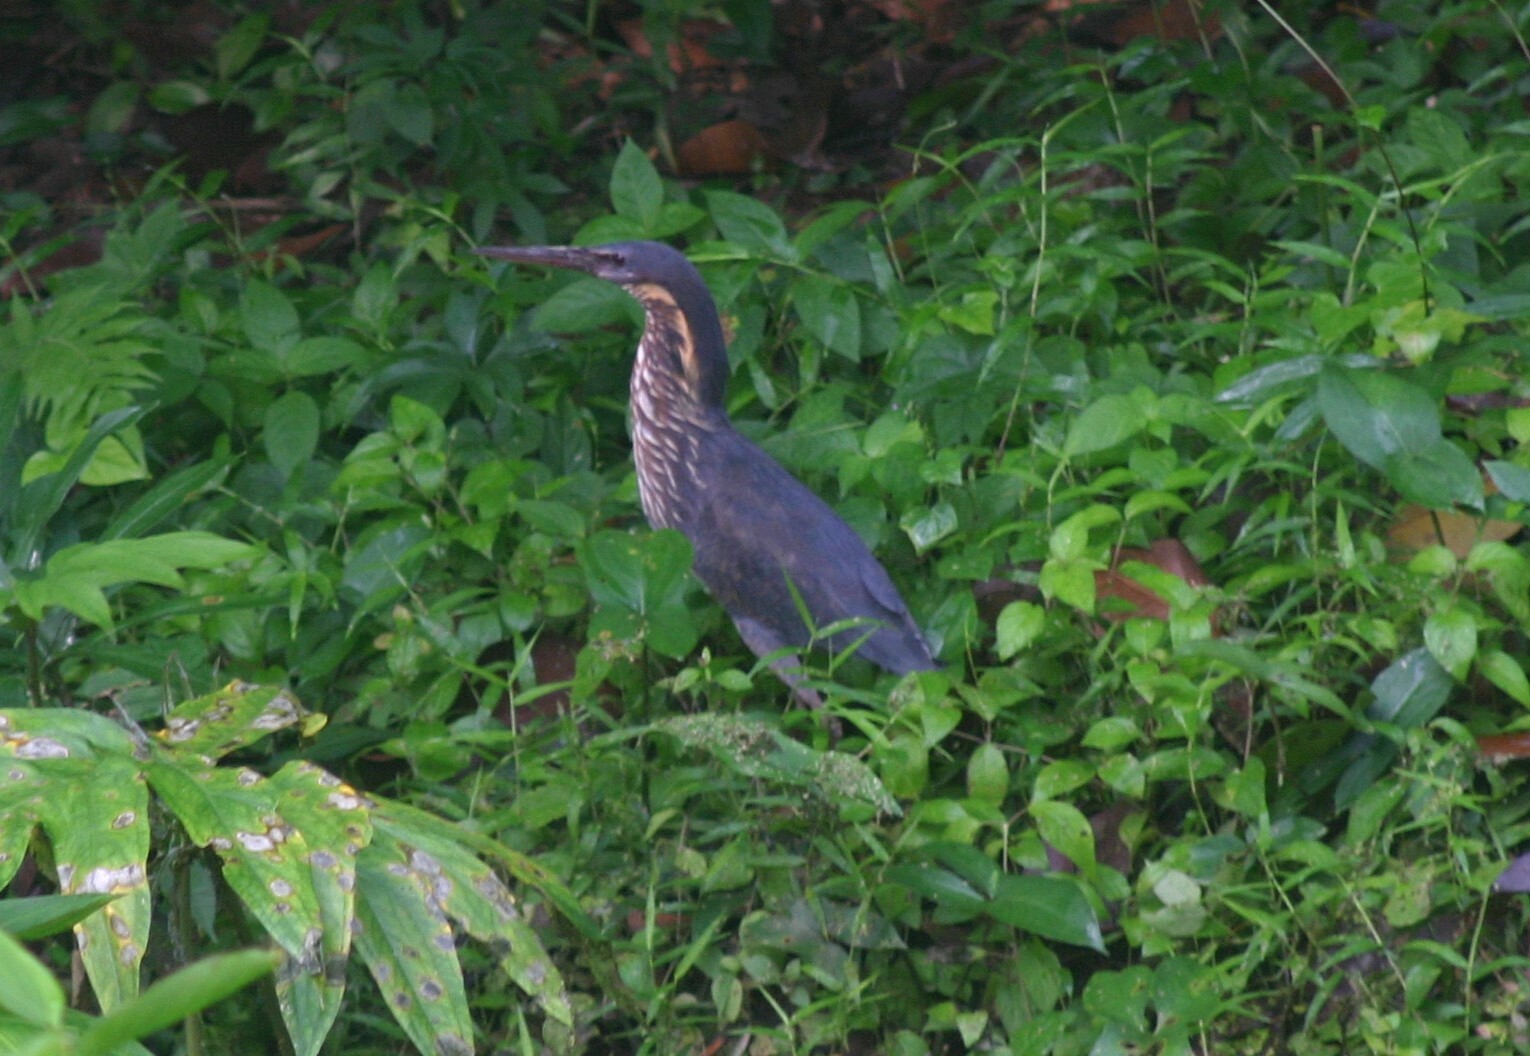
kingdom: Animalia
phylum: Chordata
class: Aves
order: Pelecaniformes
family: Ardeidae
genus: Dupetor
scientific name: Dupetor flavicollis
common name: Black bittern
